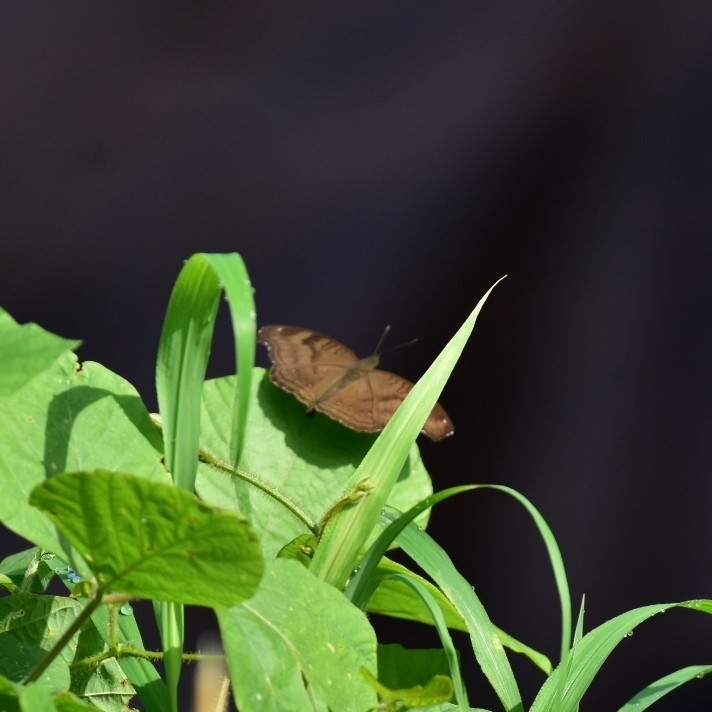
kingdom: Animalia
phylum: Arthropoda
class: Insecta
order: Lepidoptera
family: Nymphalidae
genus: Junonia
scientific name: Junonia iphita
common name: Chocolate pansy
